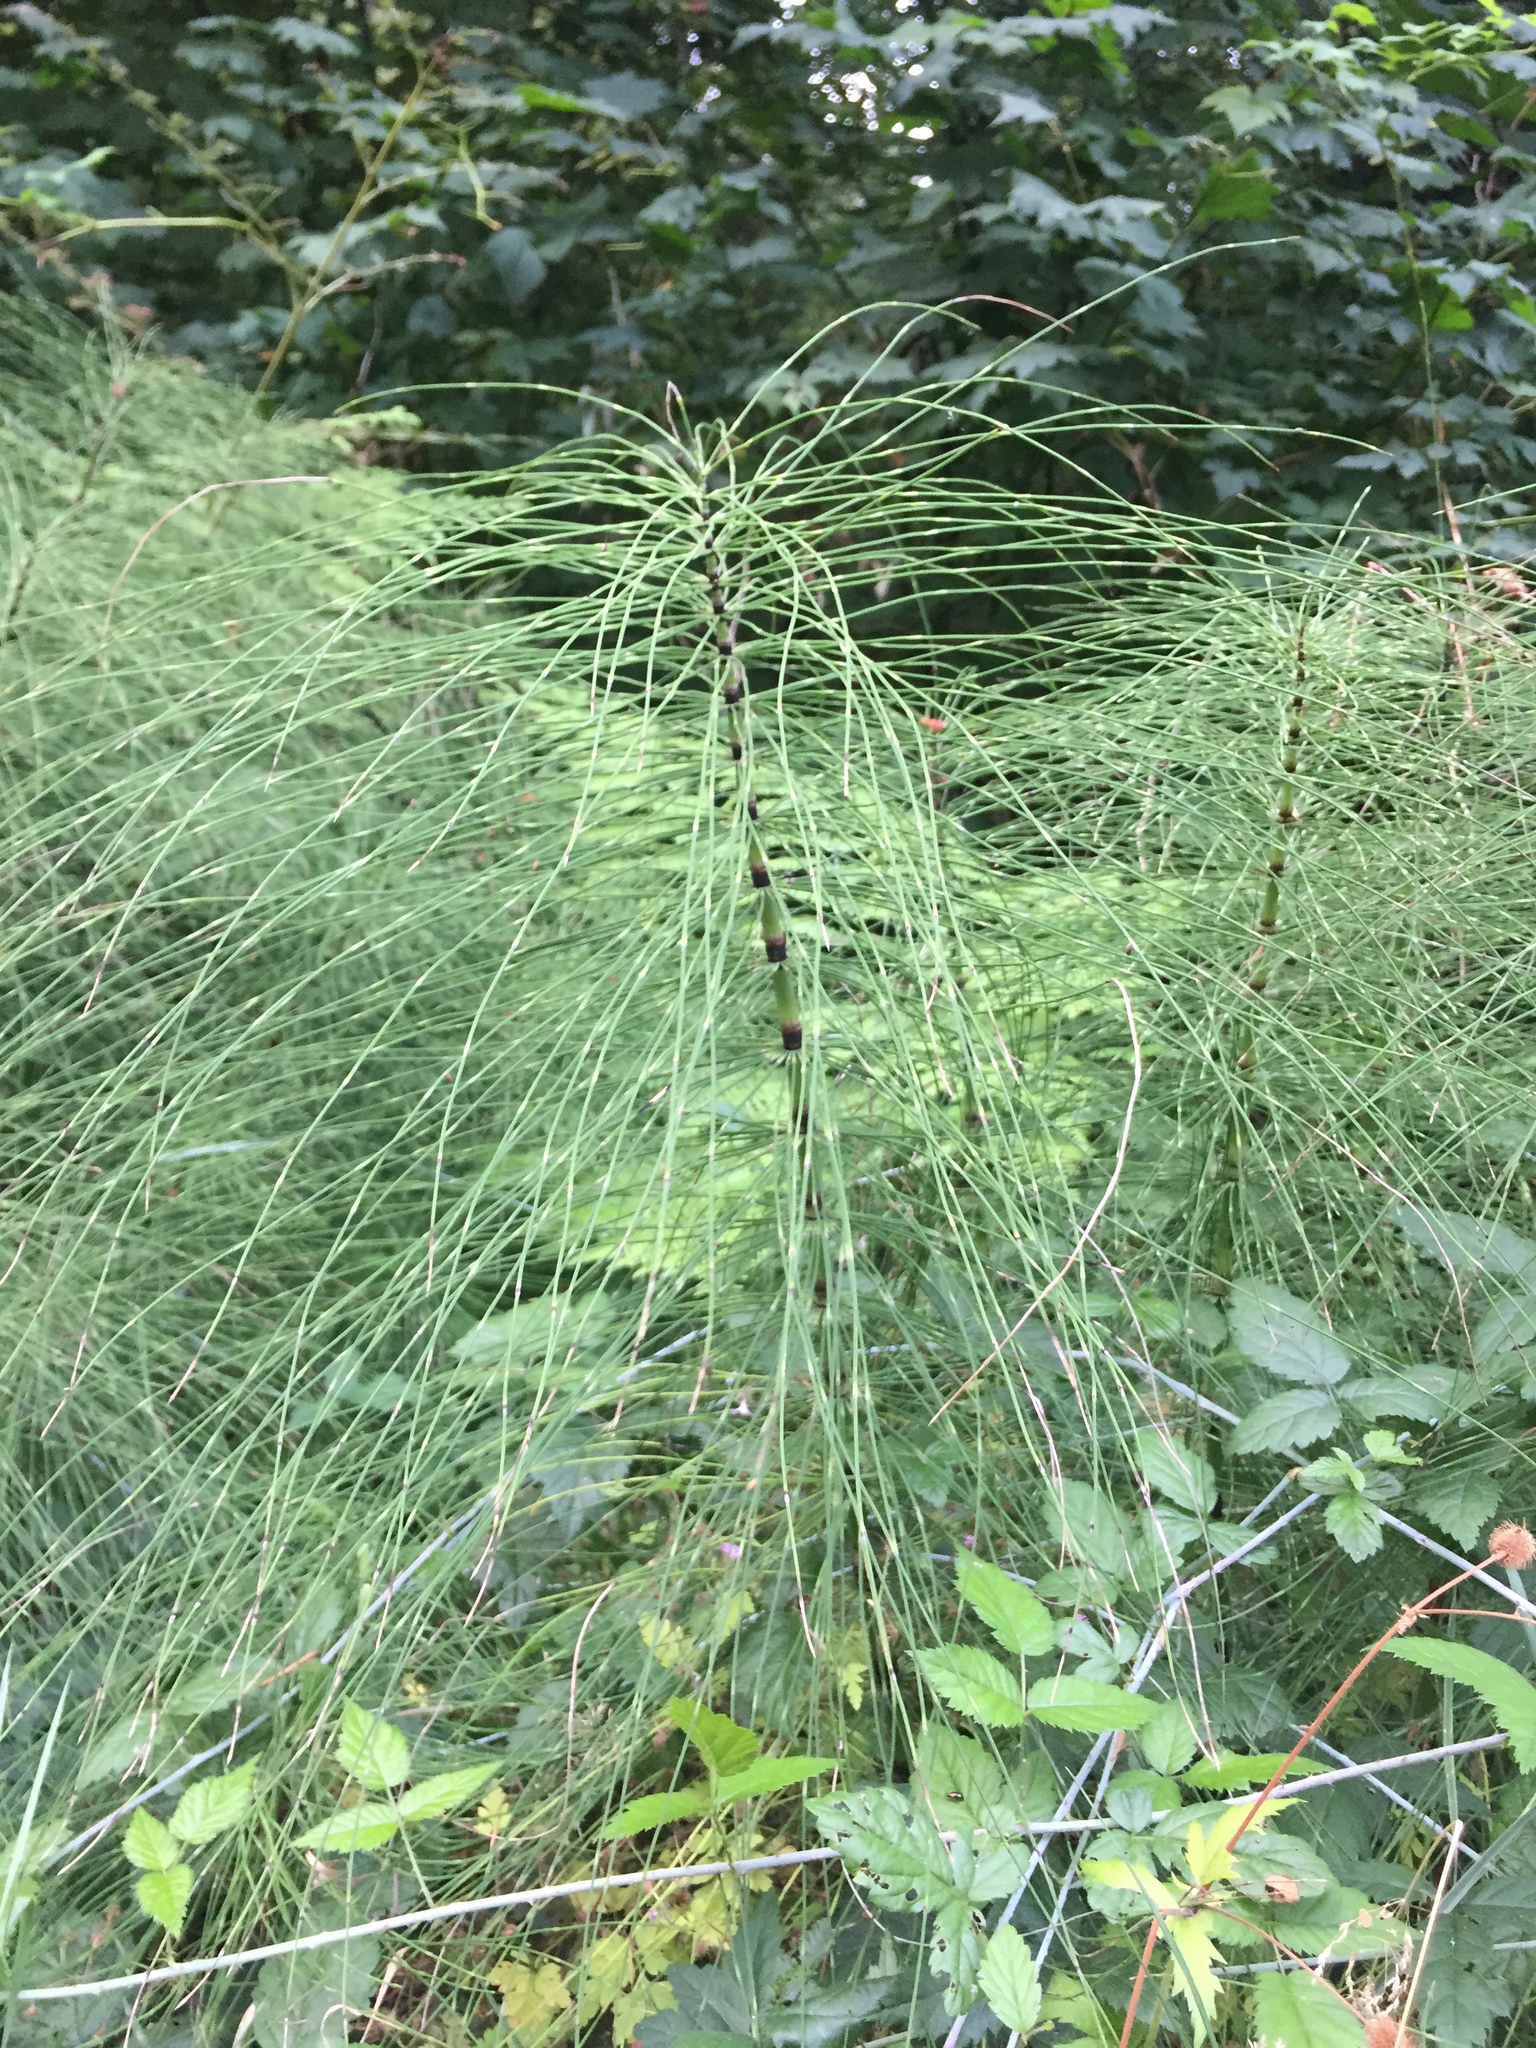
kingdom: Plantae
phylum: Tracheophyta
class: Polypodiopsida
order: Equisetales
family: Equisetaceae
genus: Equisetum
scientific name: Equisetum braunii
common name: Braun's horsetail
